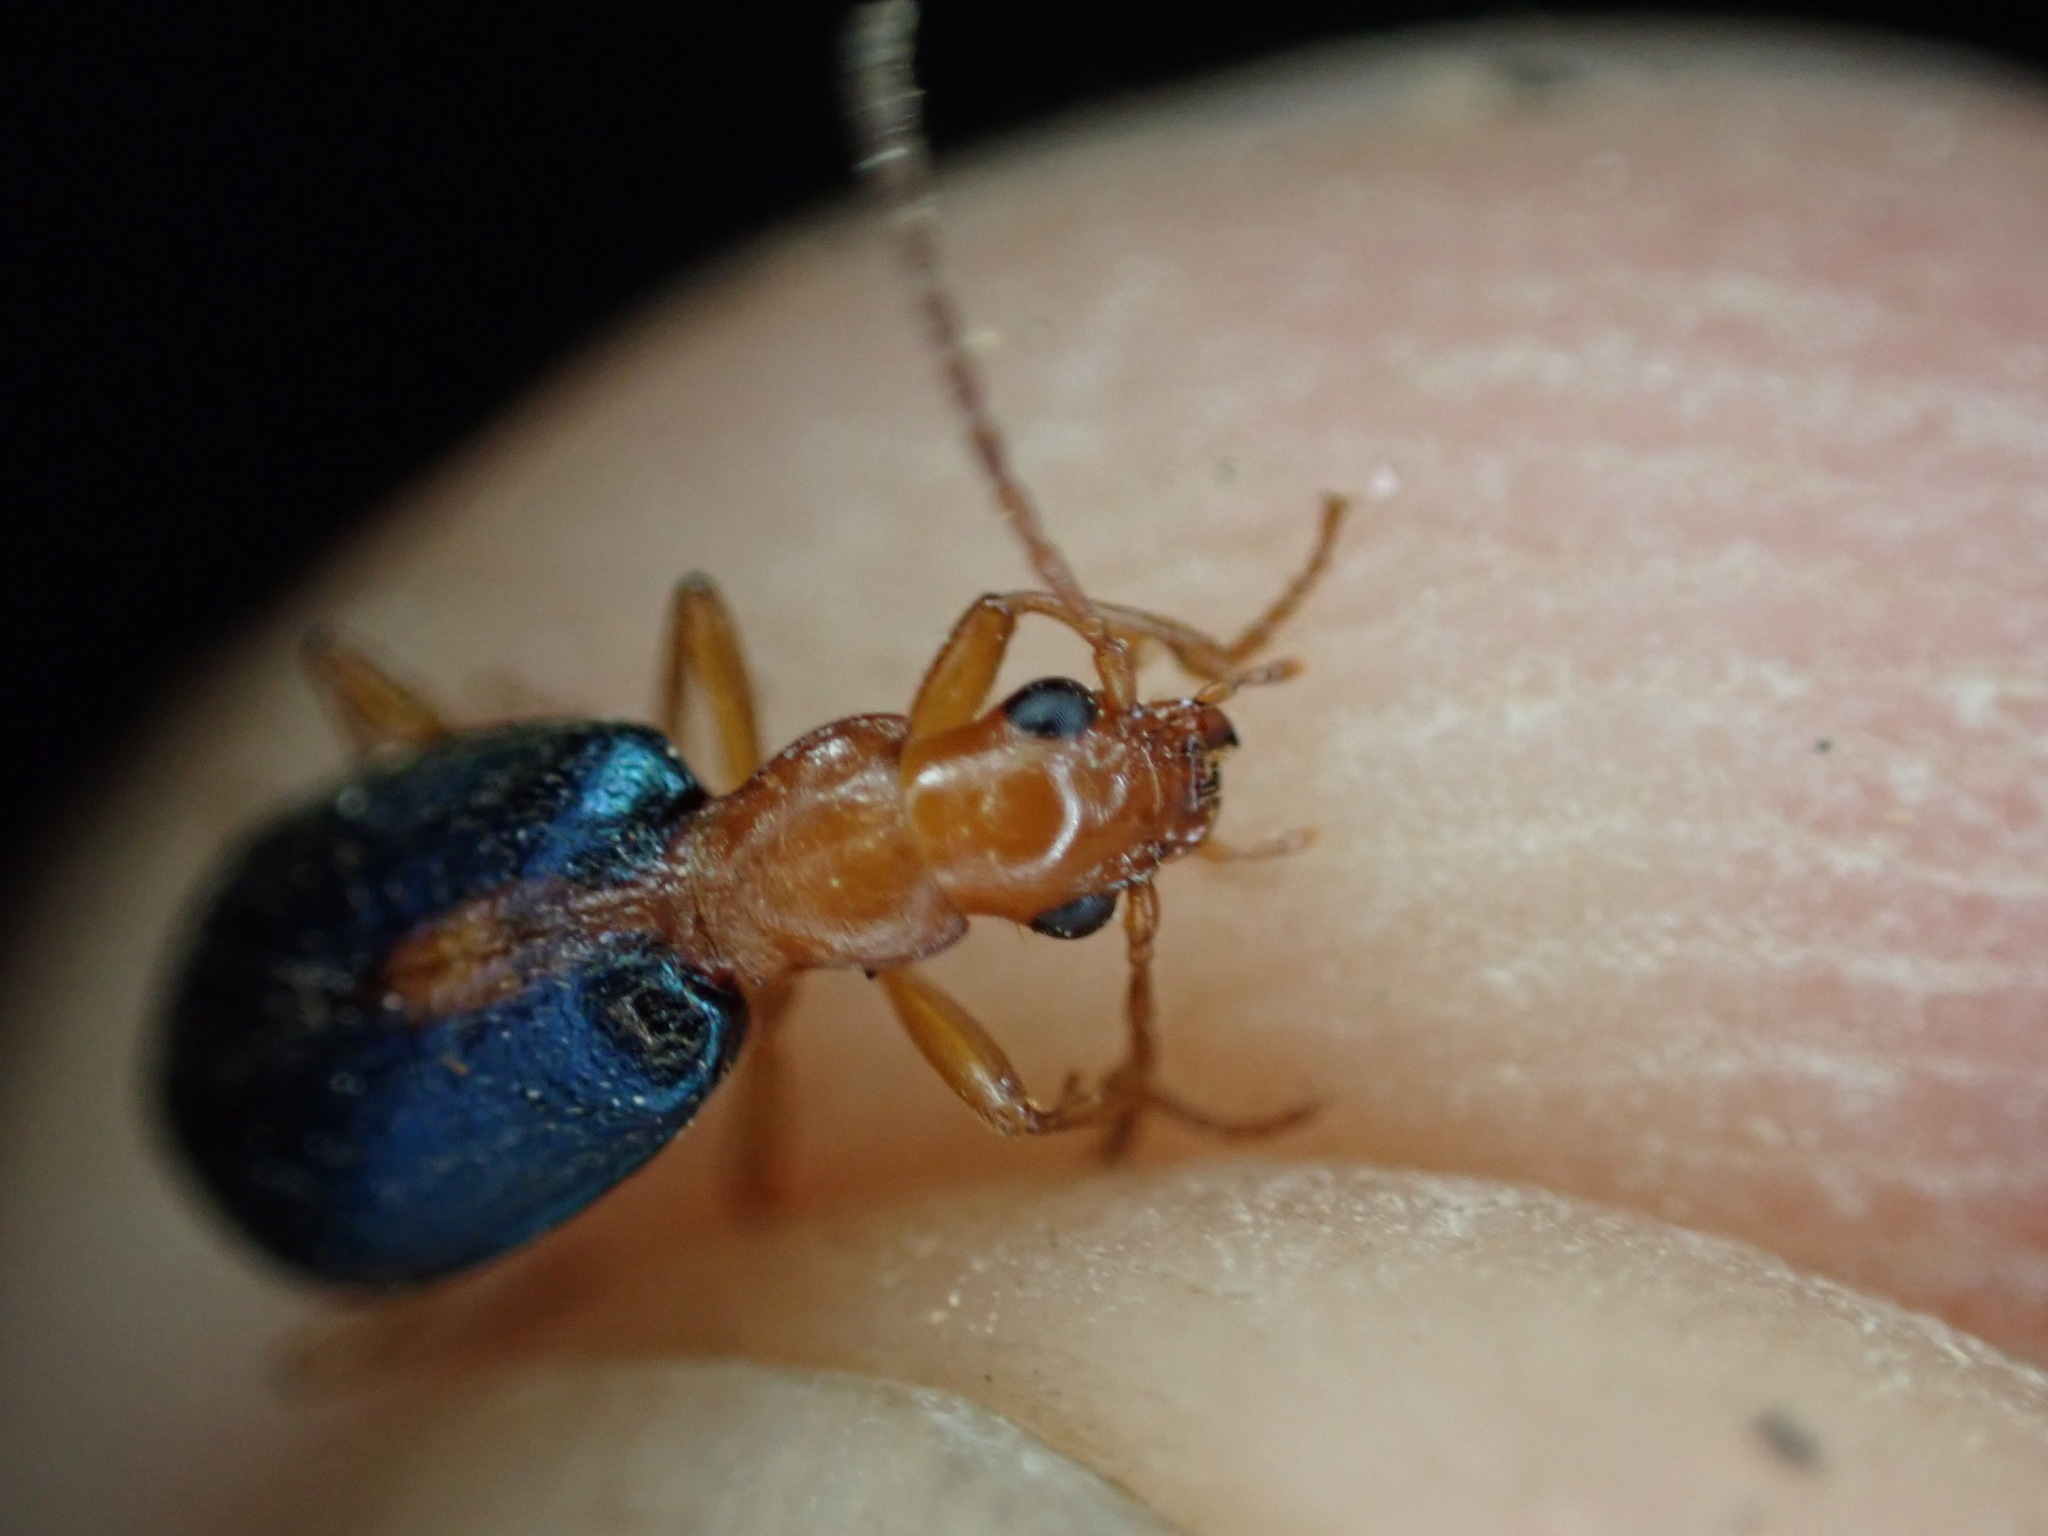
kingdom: Animalia
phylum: Arthropoda
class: Insecta
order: Coleoptera
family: Carabidae
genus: Brachinus
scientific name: Brachinus sclopeta
